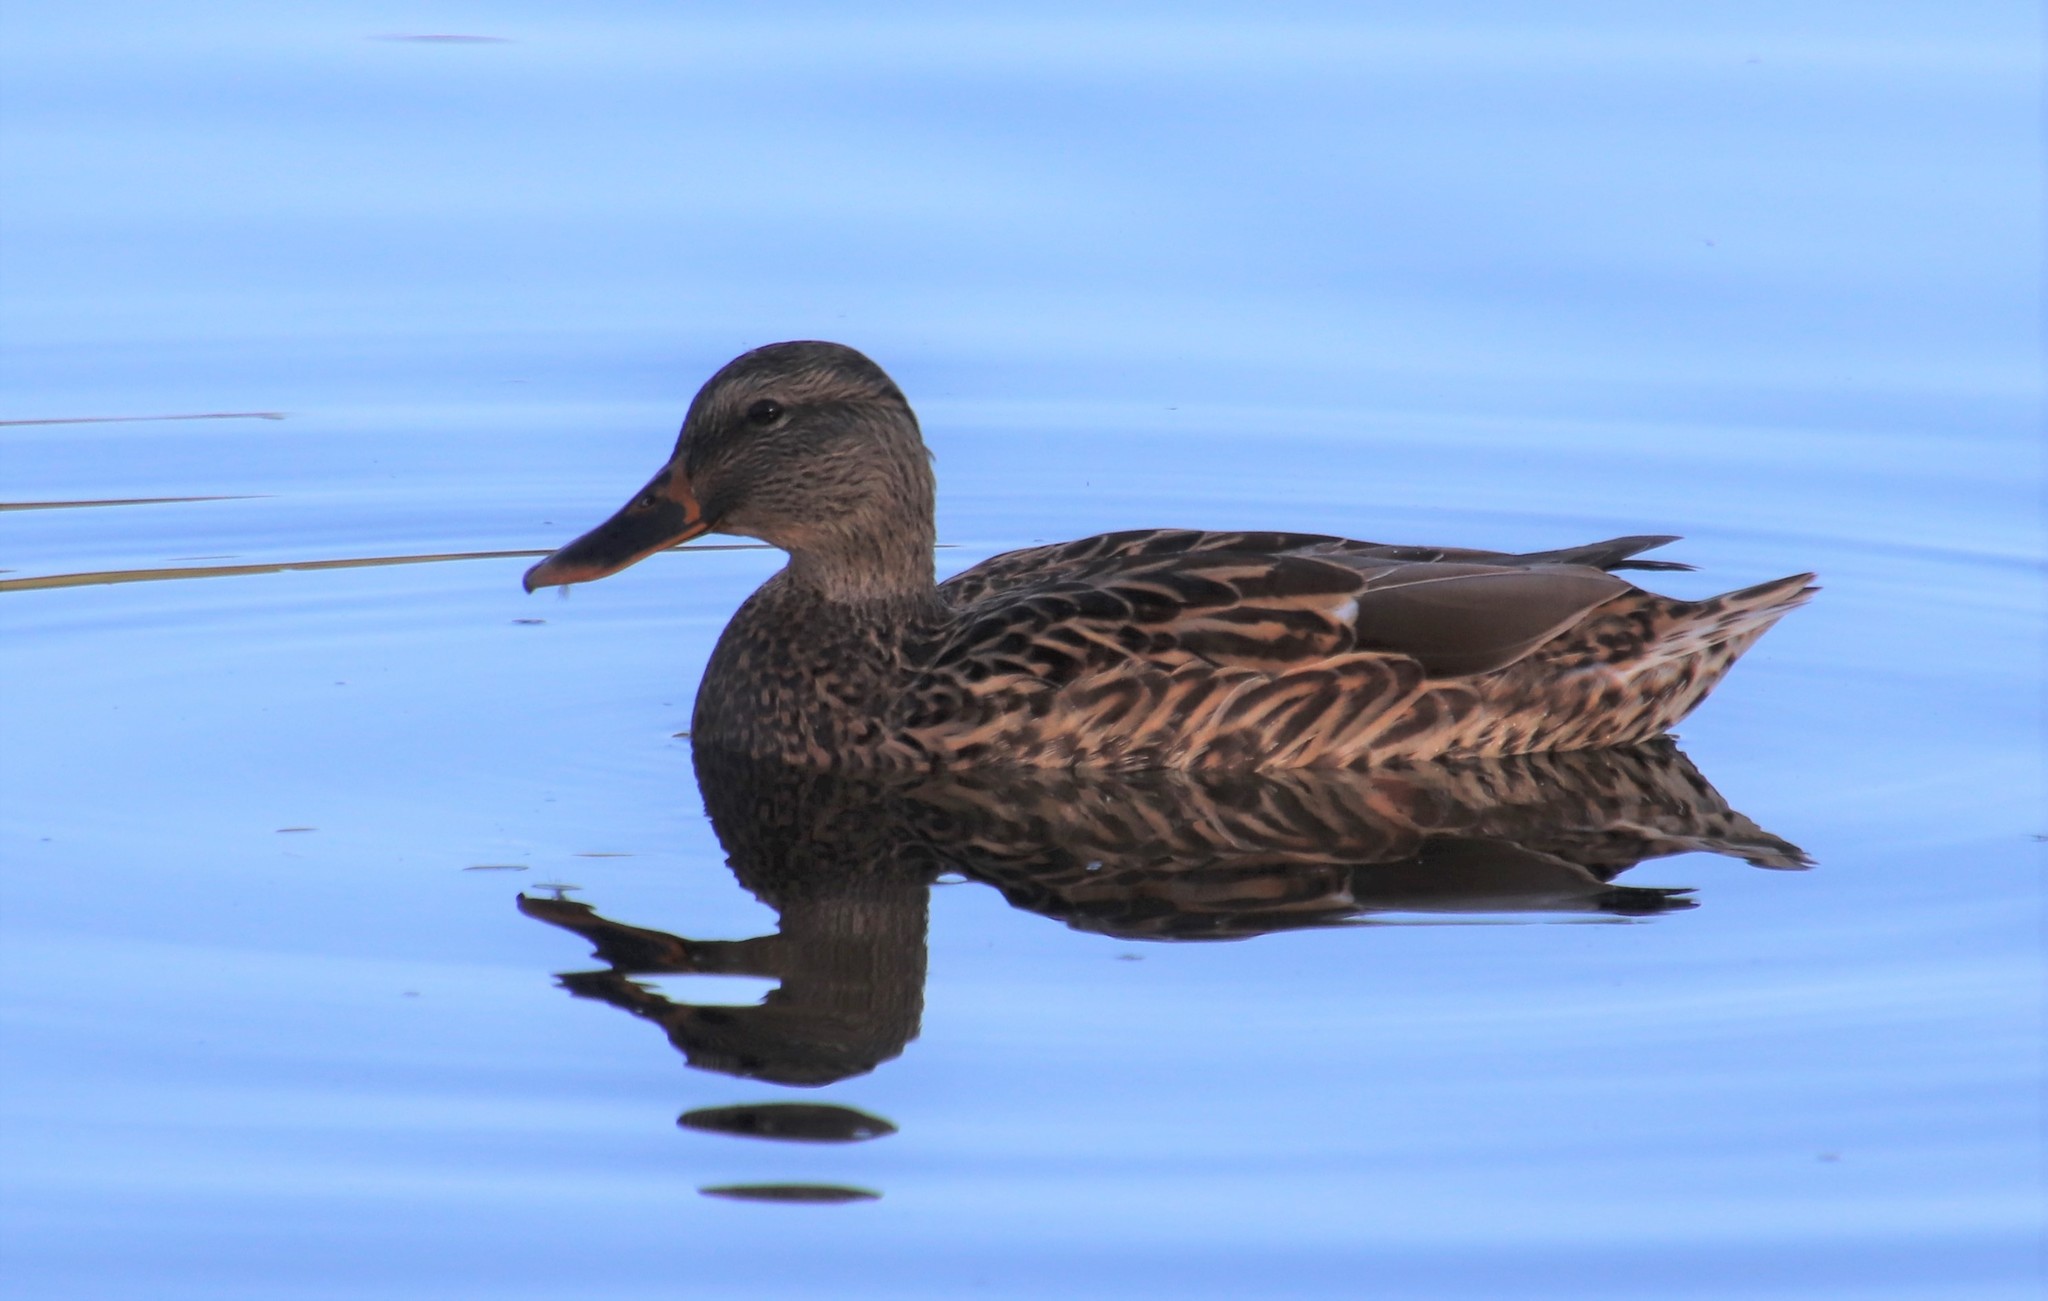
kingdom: Animalia
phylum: Chordata
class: Aves
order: Anseriformes
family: Anatidae
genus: Anas
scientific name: Anas platyrhynchos
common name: Mallard
